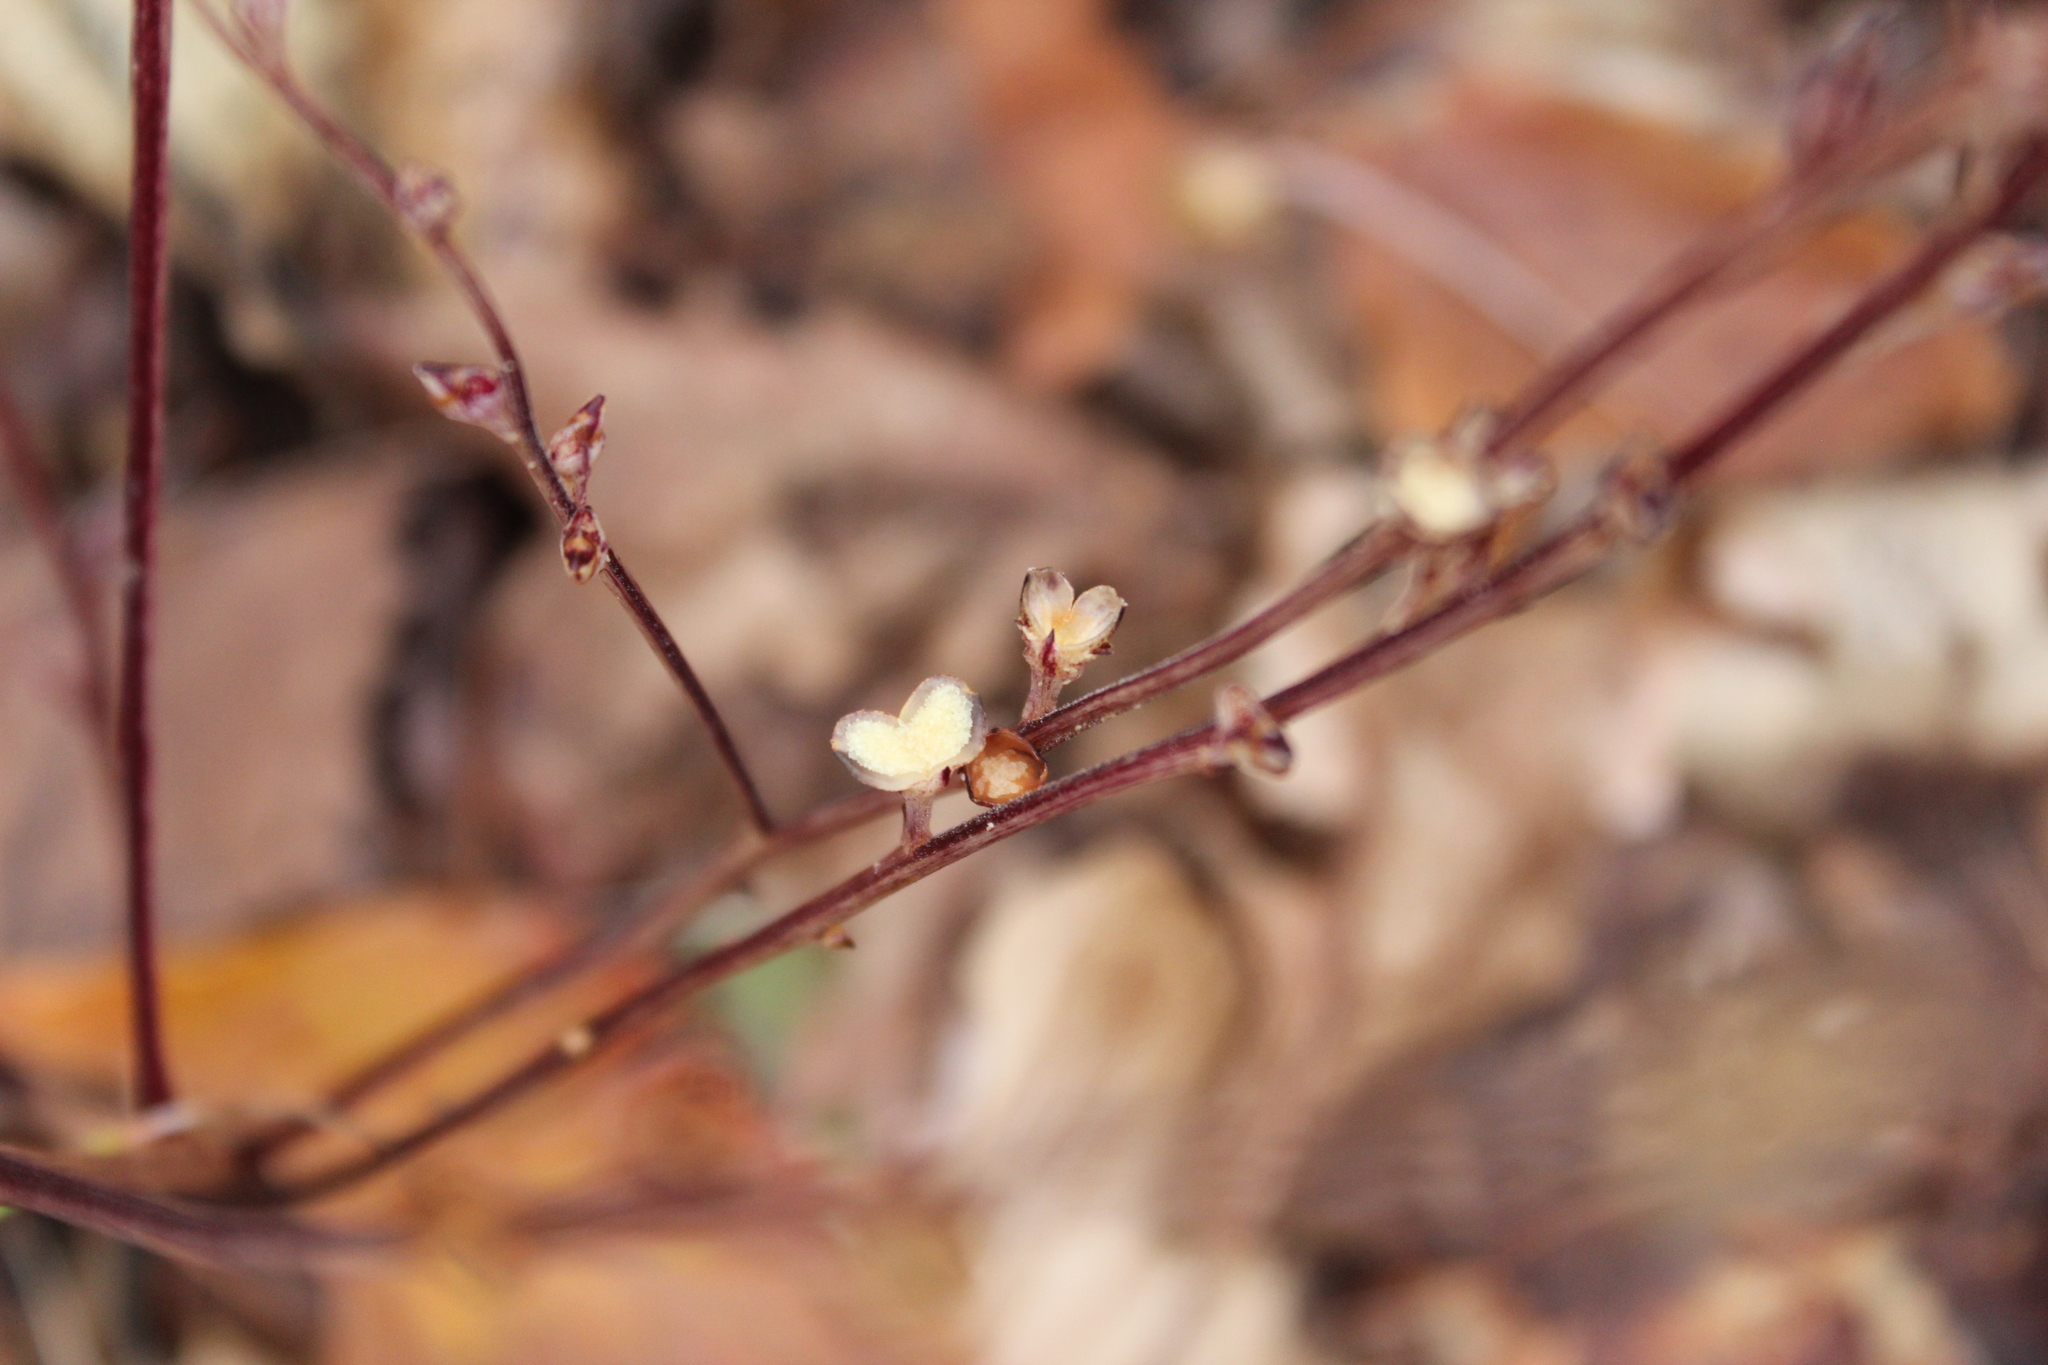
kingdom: Plantae
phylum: Tracheophyta
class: Magnoliopsida
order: Lamiales
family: Orobanchaceae
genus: Epifagus
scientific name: Epifagus virginiana
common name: Beechdrops
